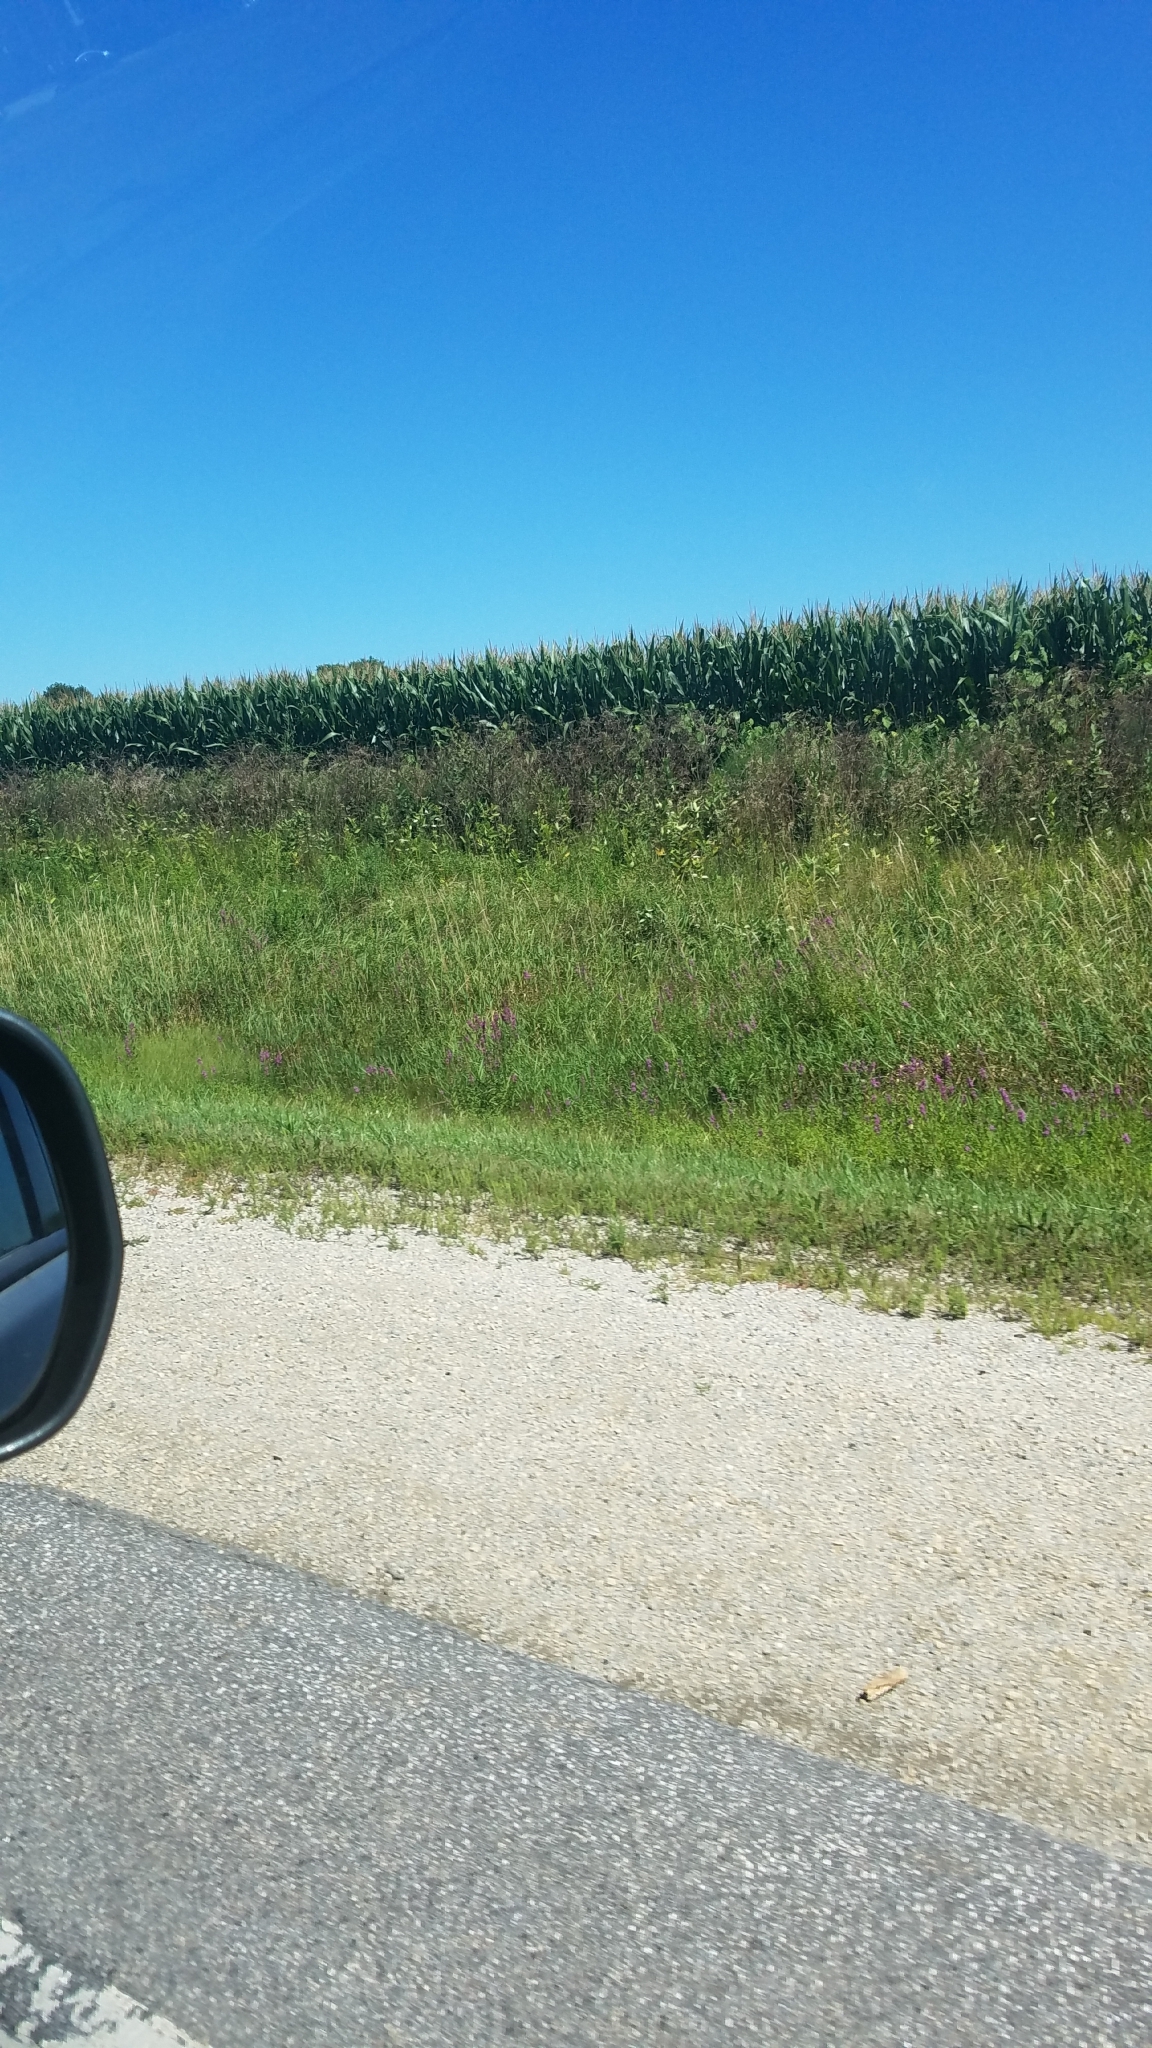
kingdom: Plantae
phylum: Tracheophyta
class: Magnoliopsida
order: Myrtales
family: Lythraceae
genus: Lythrum
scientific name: Lythrum salicaria
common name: Purple loosestrife
